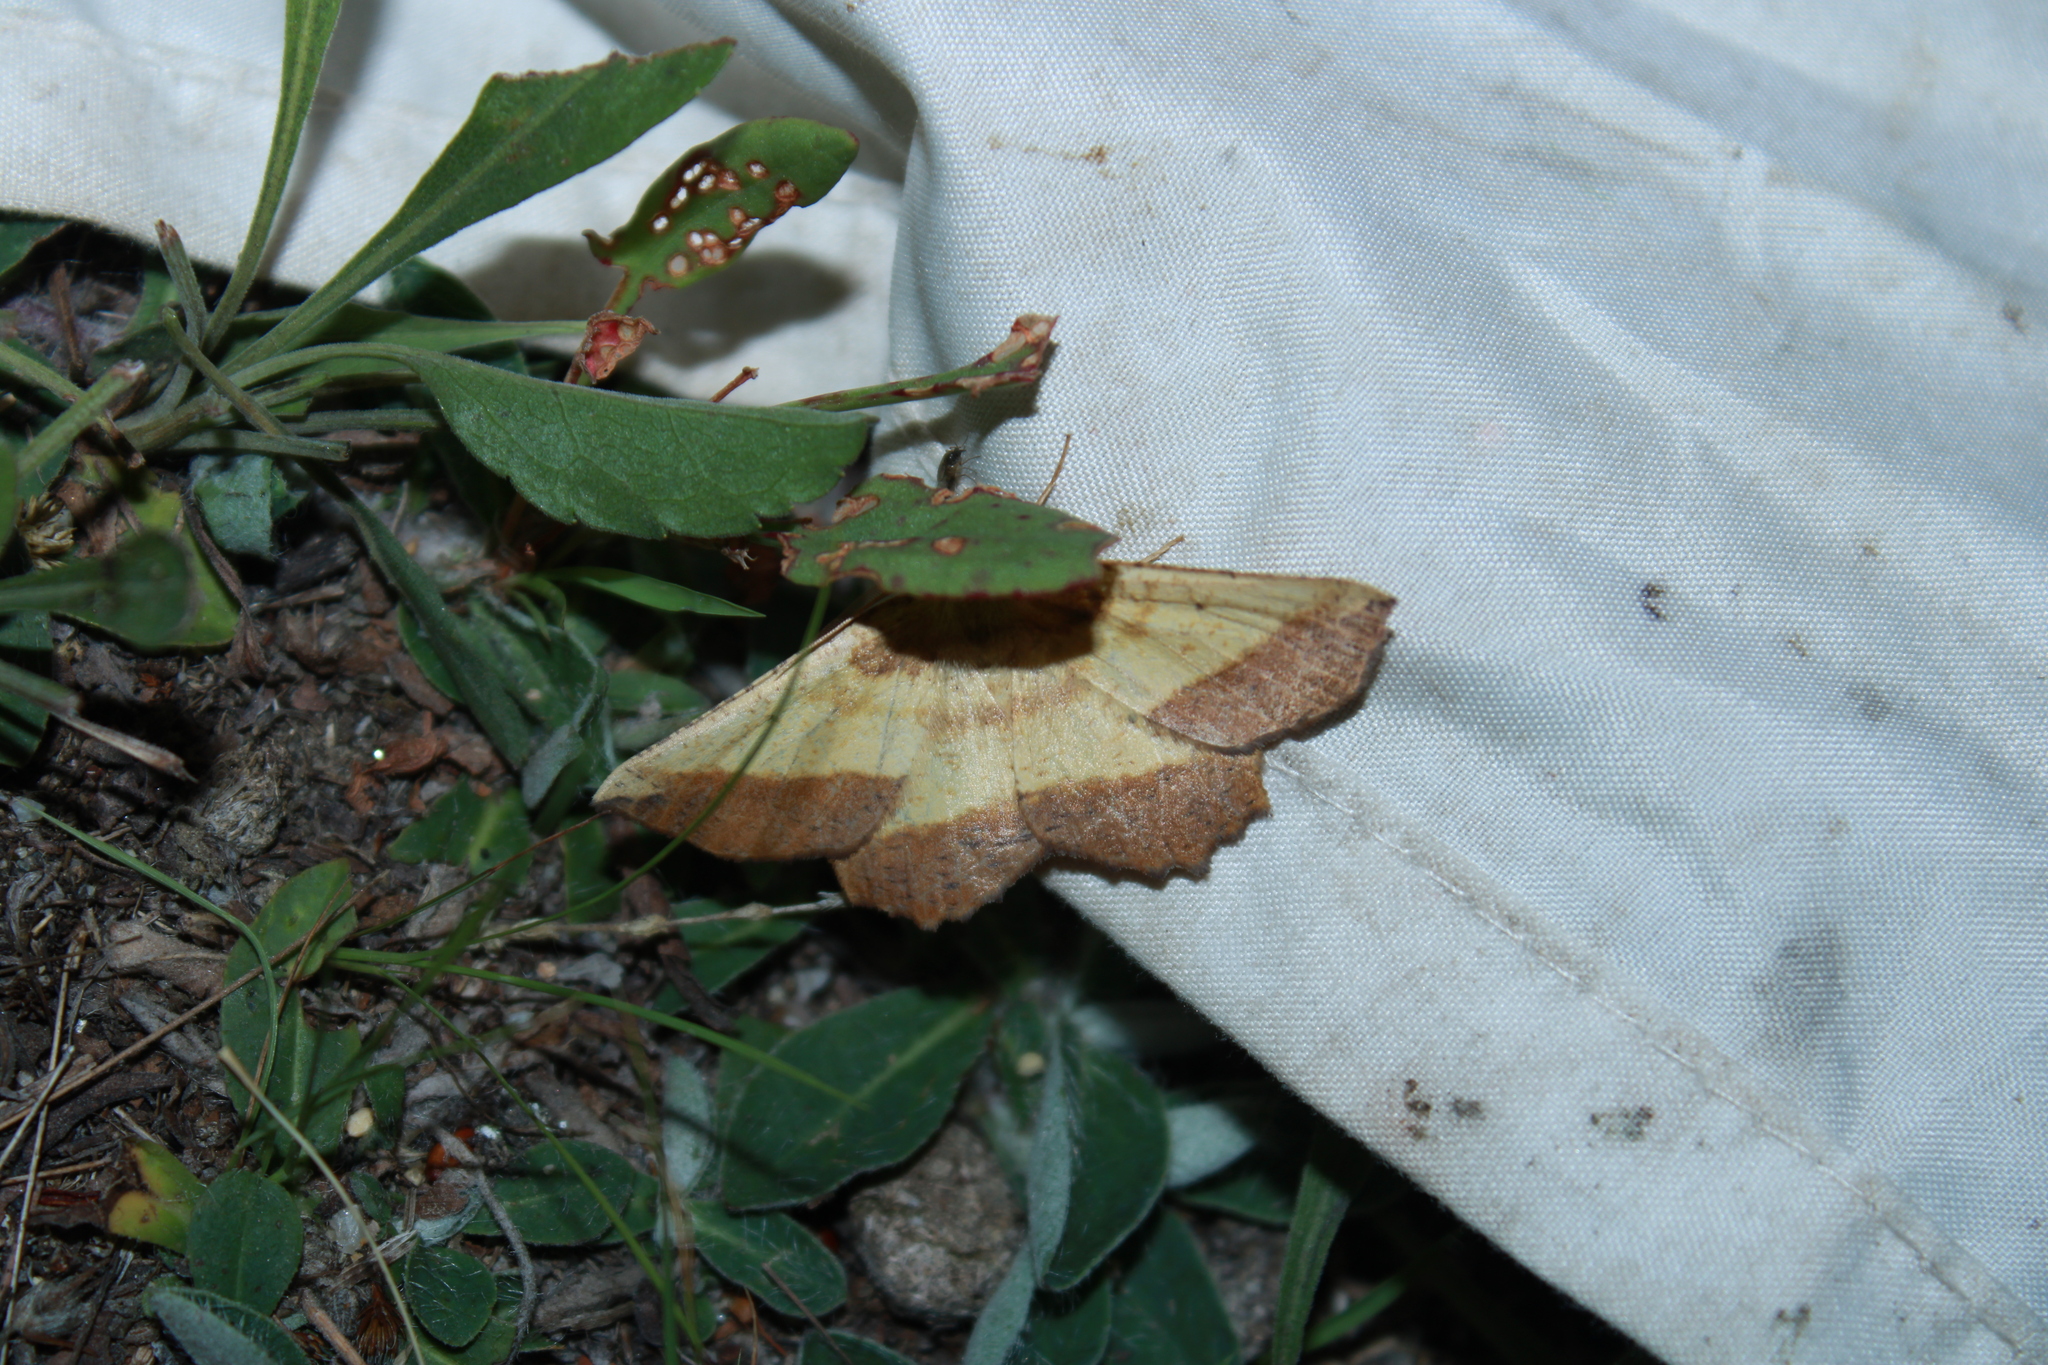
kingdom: Animalia
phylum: Arthropoda
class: Insecta
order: Lepidoptera
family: Geometridae
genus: Euchlaena
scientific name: Euchlaena serrata
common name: Saw wing
